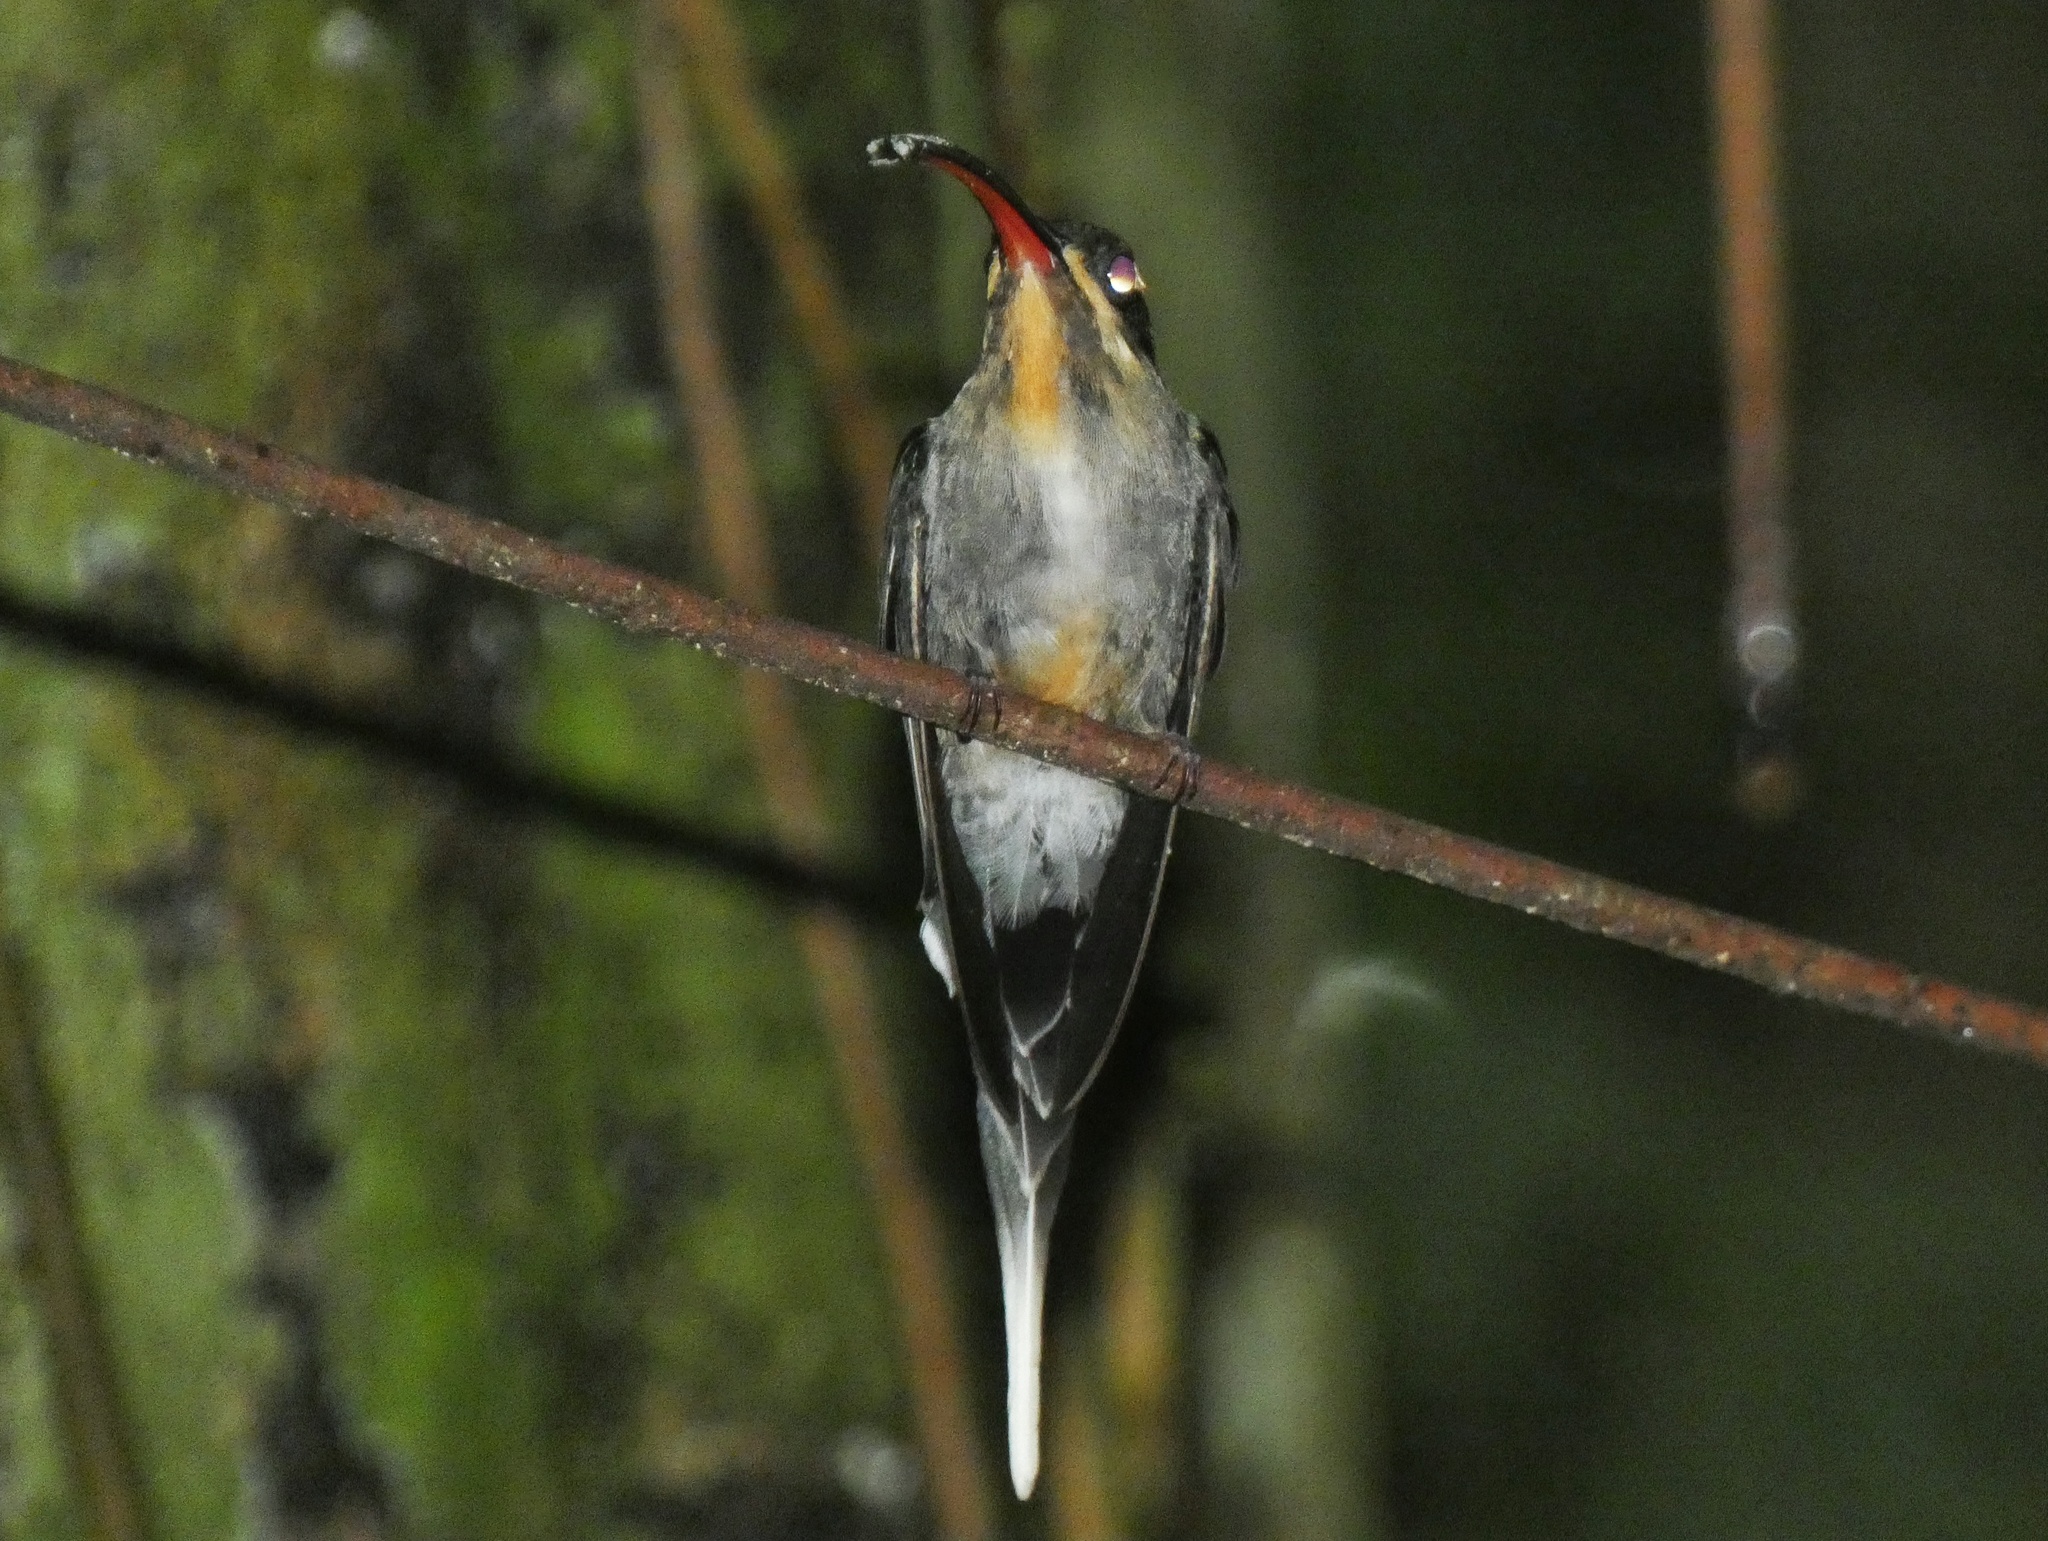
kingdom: Animalia
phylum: Chordata
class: Aves
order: Apodiformes
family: Trochilidae
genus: Phaethornis
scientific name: Phaethornis guy
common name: Green hermit
